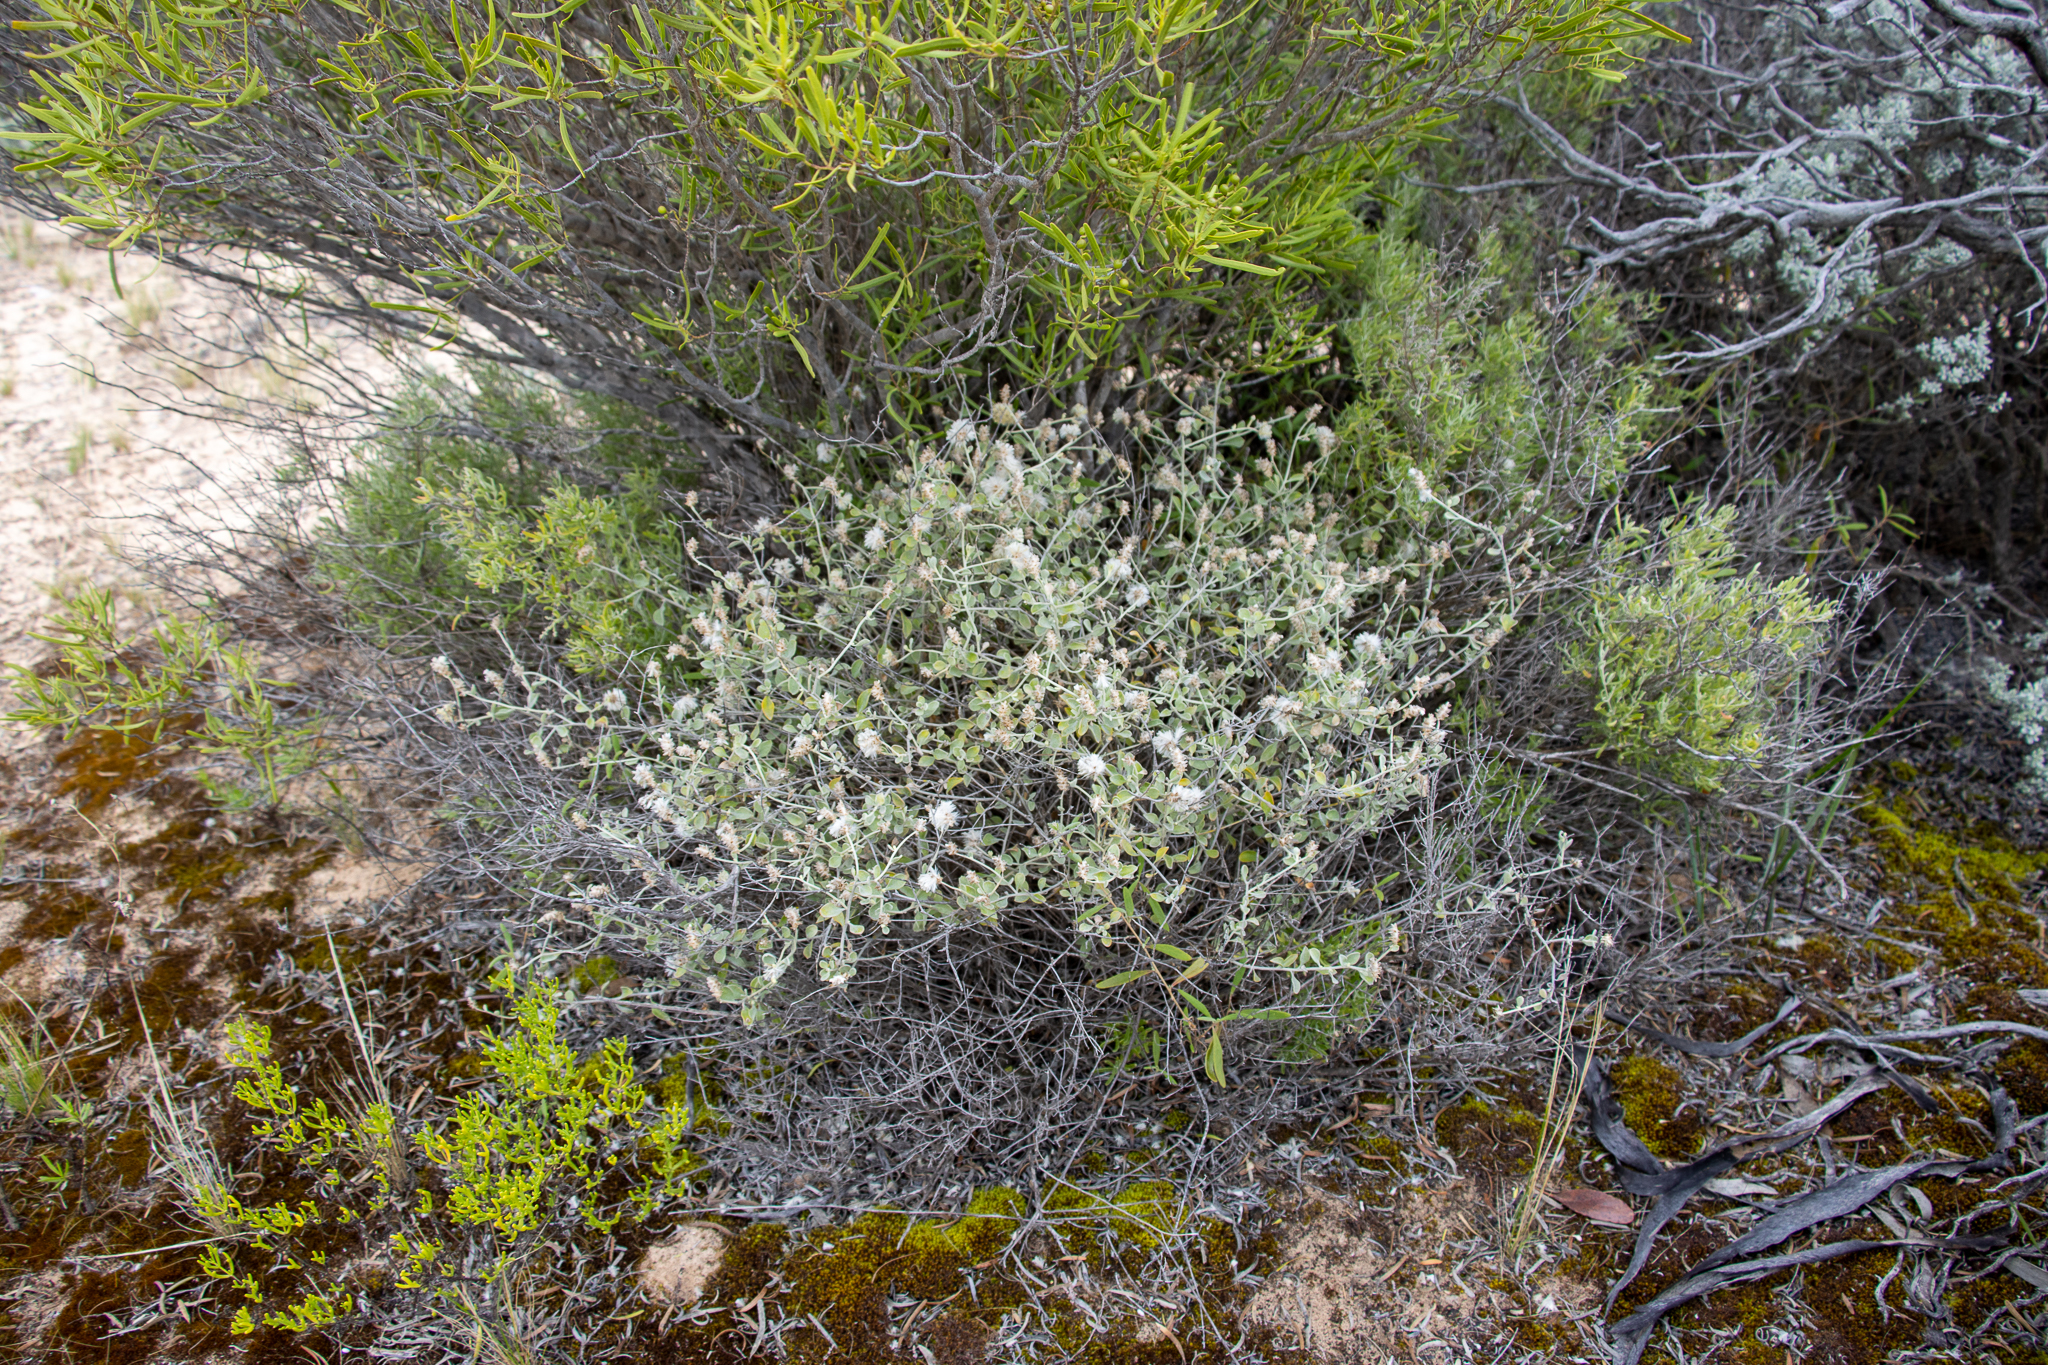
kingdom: Plantae
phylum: Tracheophyta
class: Magnoliopsida
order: Caryophyllales
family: Amaranthaceae
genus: Ptilotus
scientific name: Ptilotus obovatus
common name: Cottonbush
